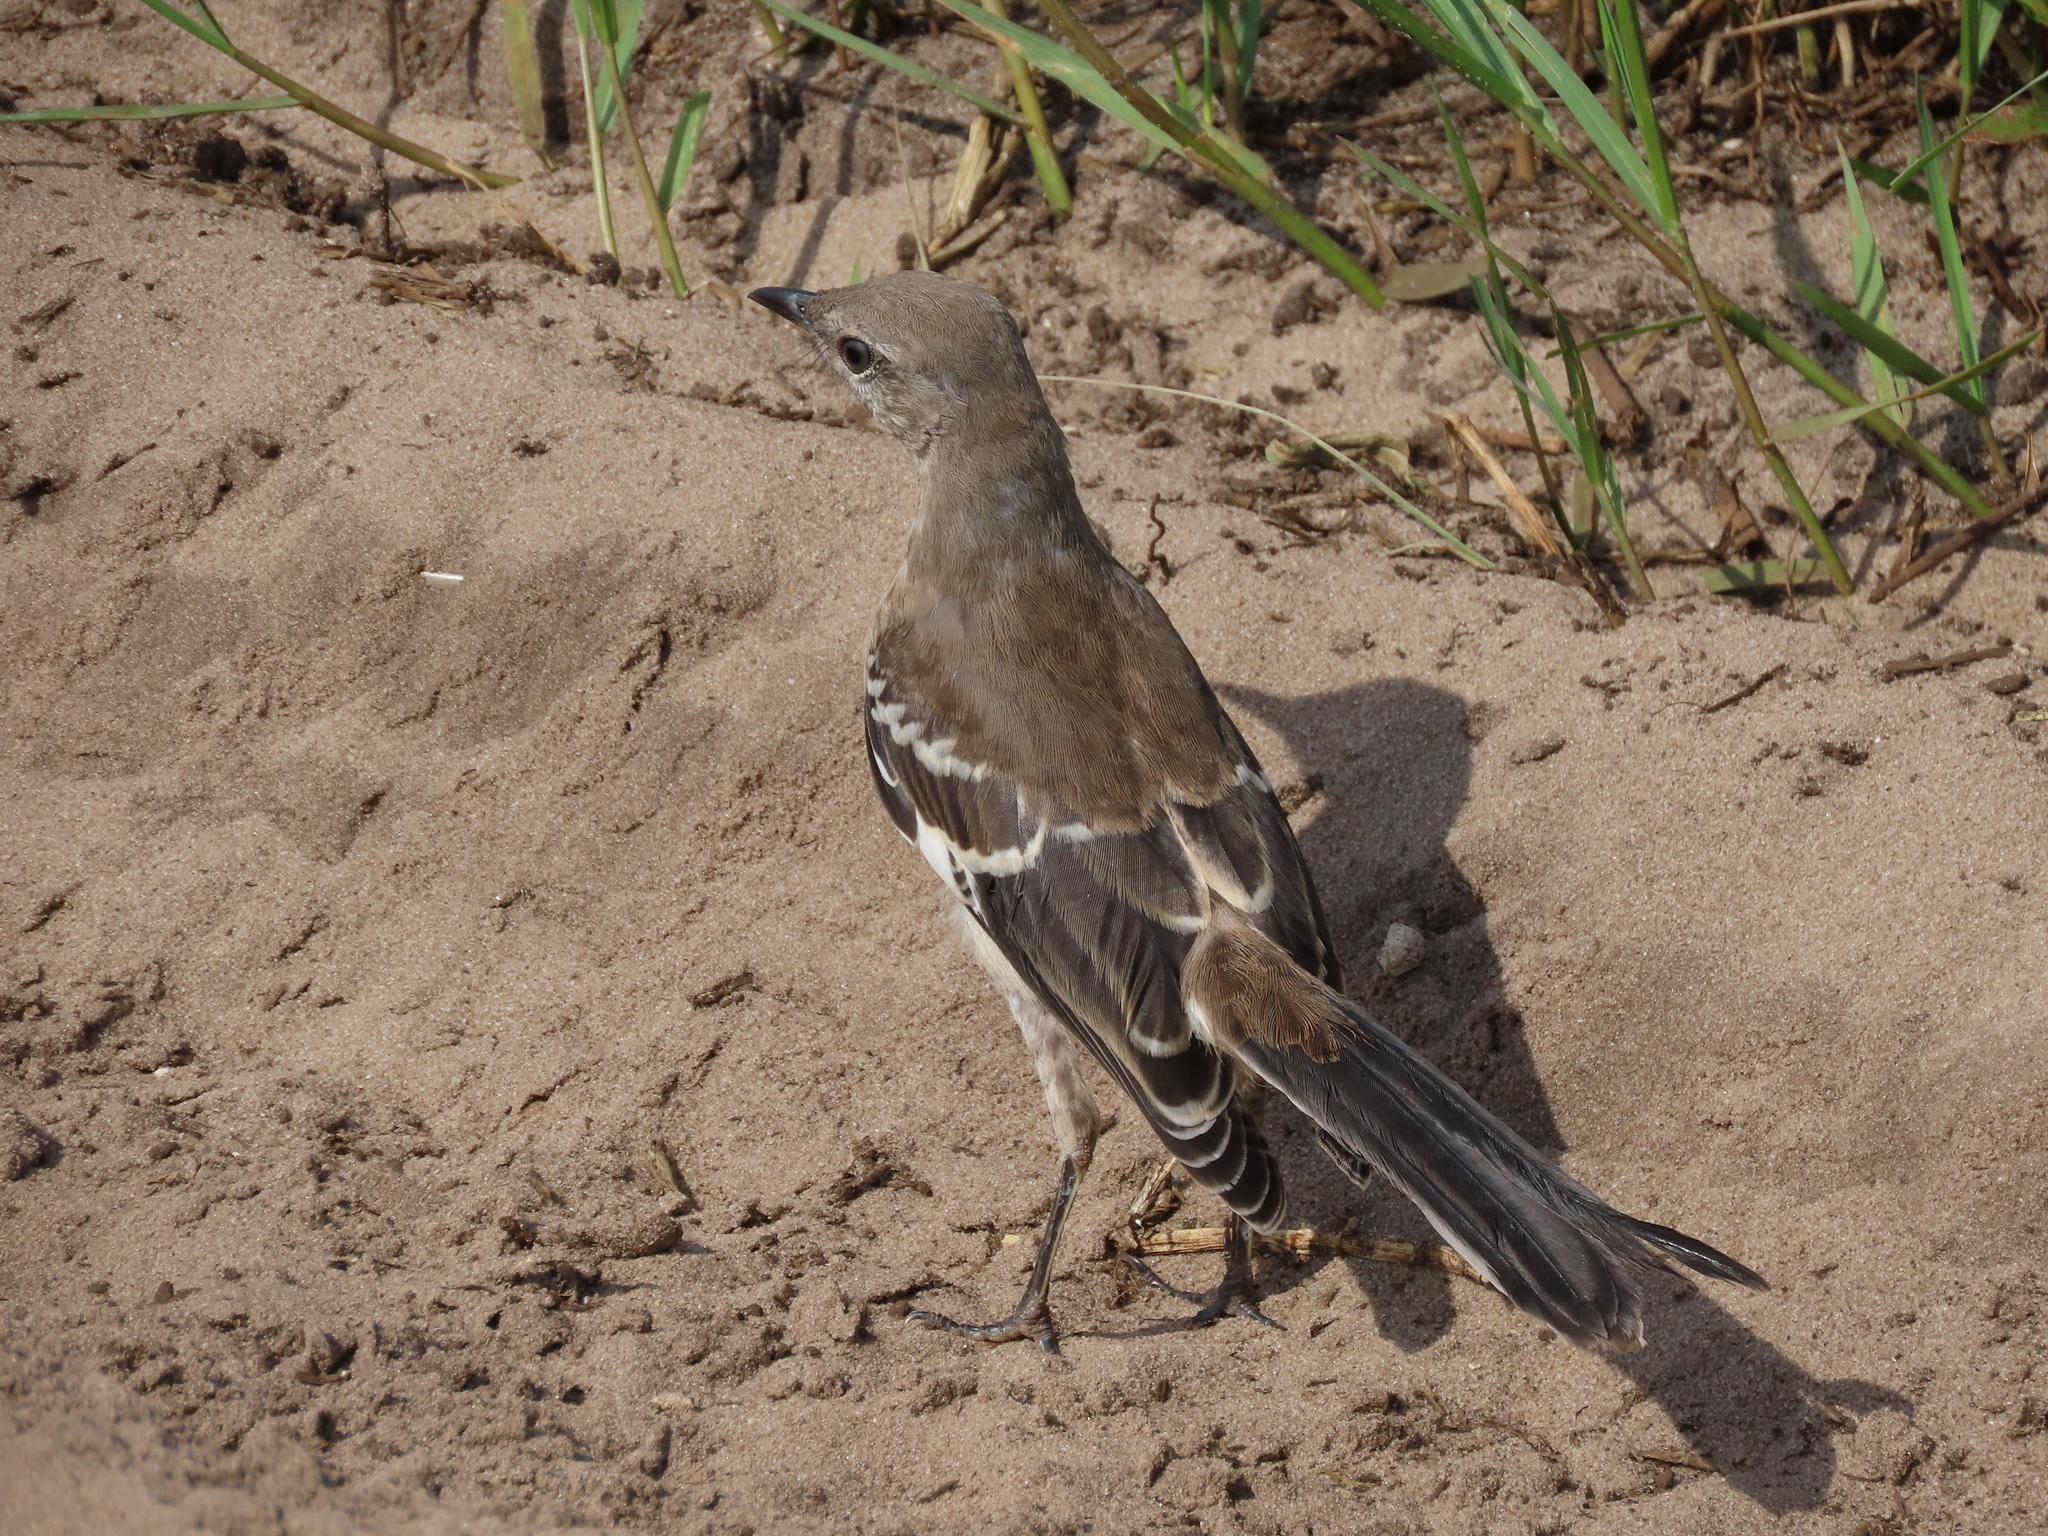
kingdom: Animalia
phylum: Chordata
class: Aves
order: Passeriformes
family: Mimidae
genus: Mimus
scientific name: Mimus polyglottos
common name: Northern mockingbird
